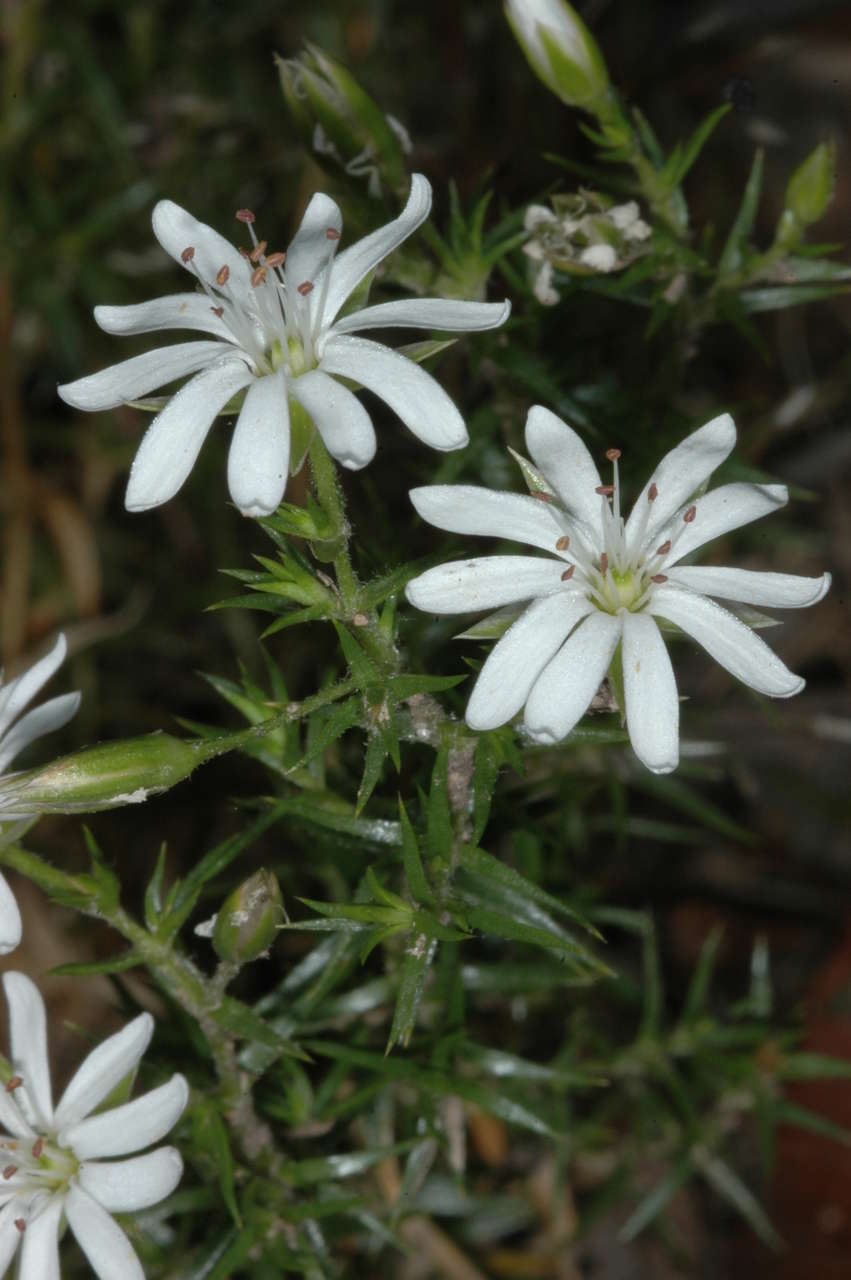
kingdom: Plantae
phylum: Tracheophyta
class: Magnoliopsida
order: Caryophyllales
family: Caryophyllaceae
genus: Stellaria
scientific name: Stellaria pungens
